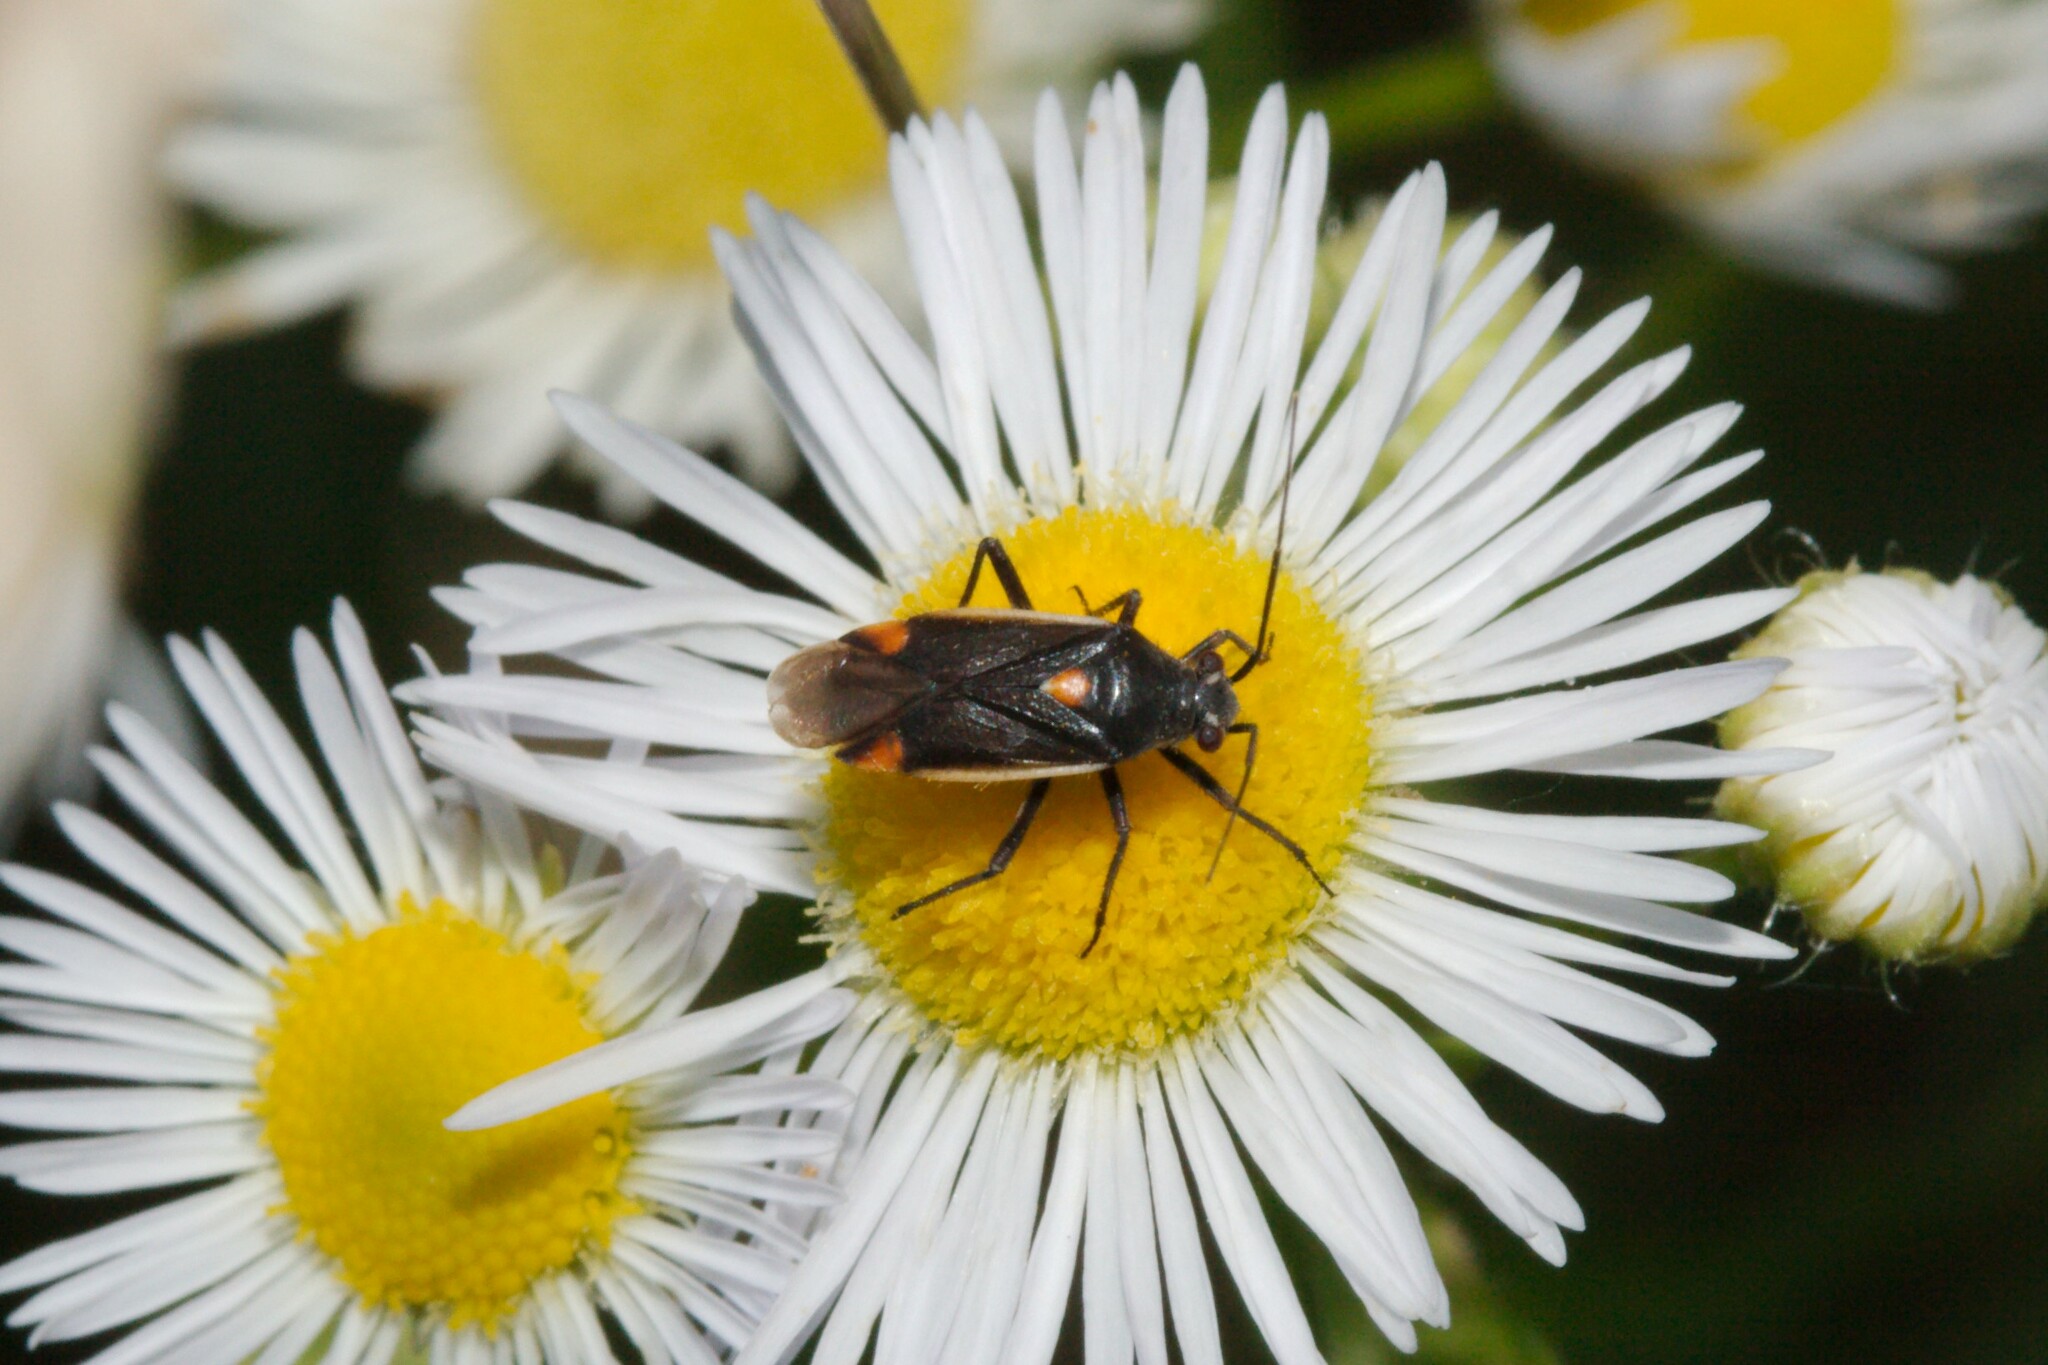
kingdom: Animalia
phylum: Arthropoda
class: Insecta
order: Hemiptera
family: Miridae
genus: Capsodes
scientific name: Capsodes gothicus
